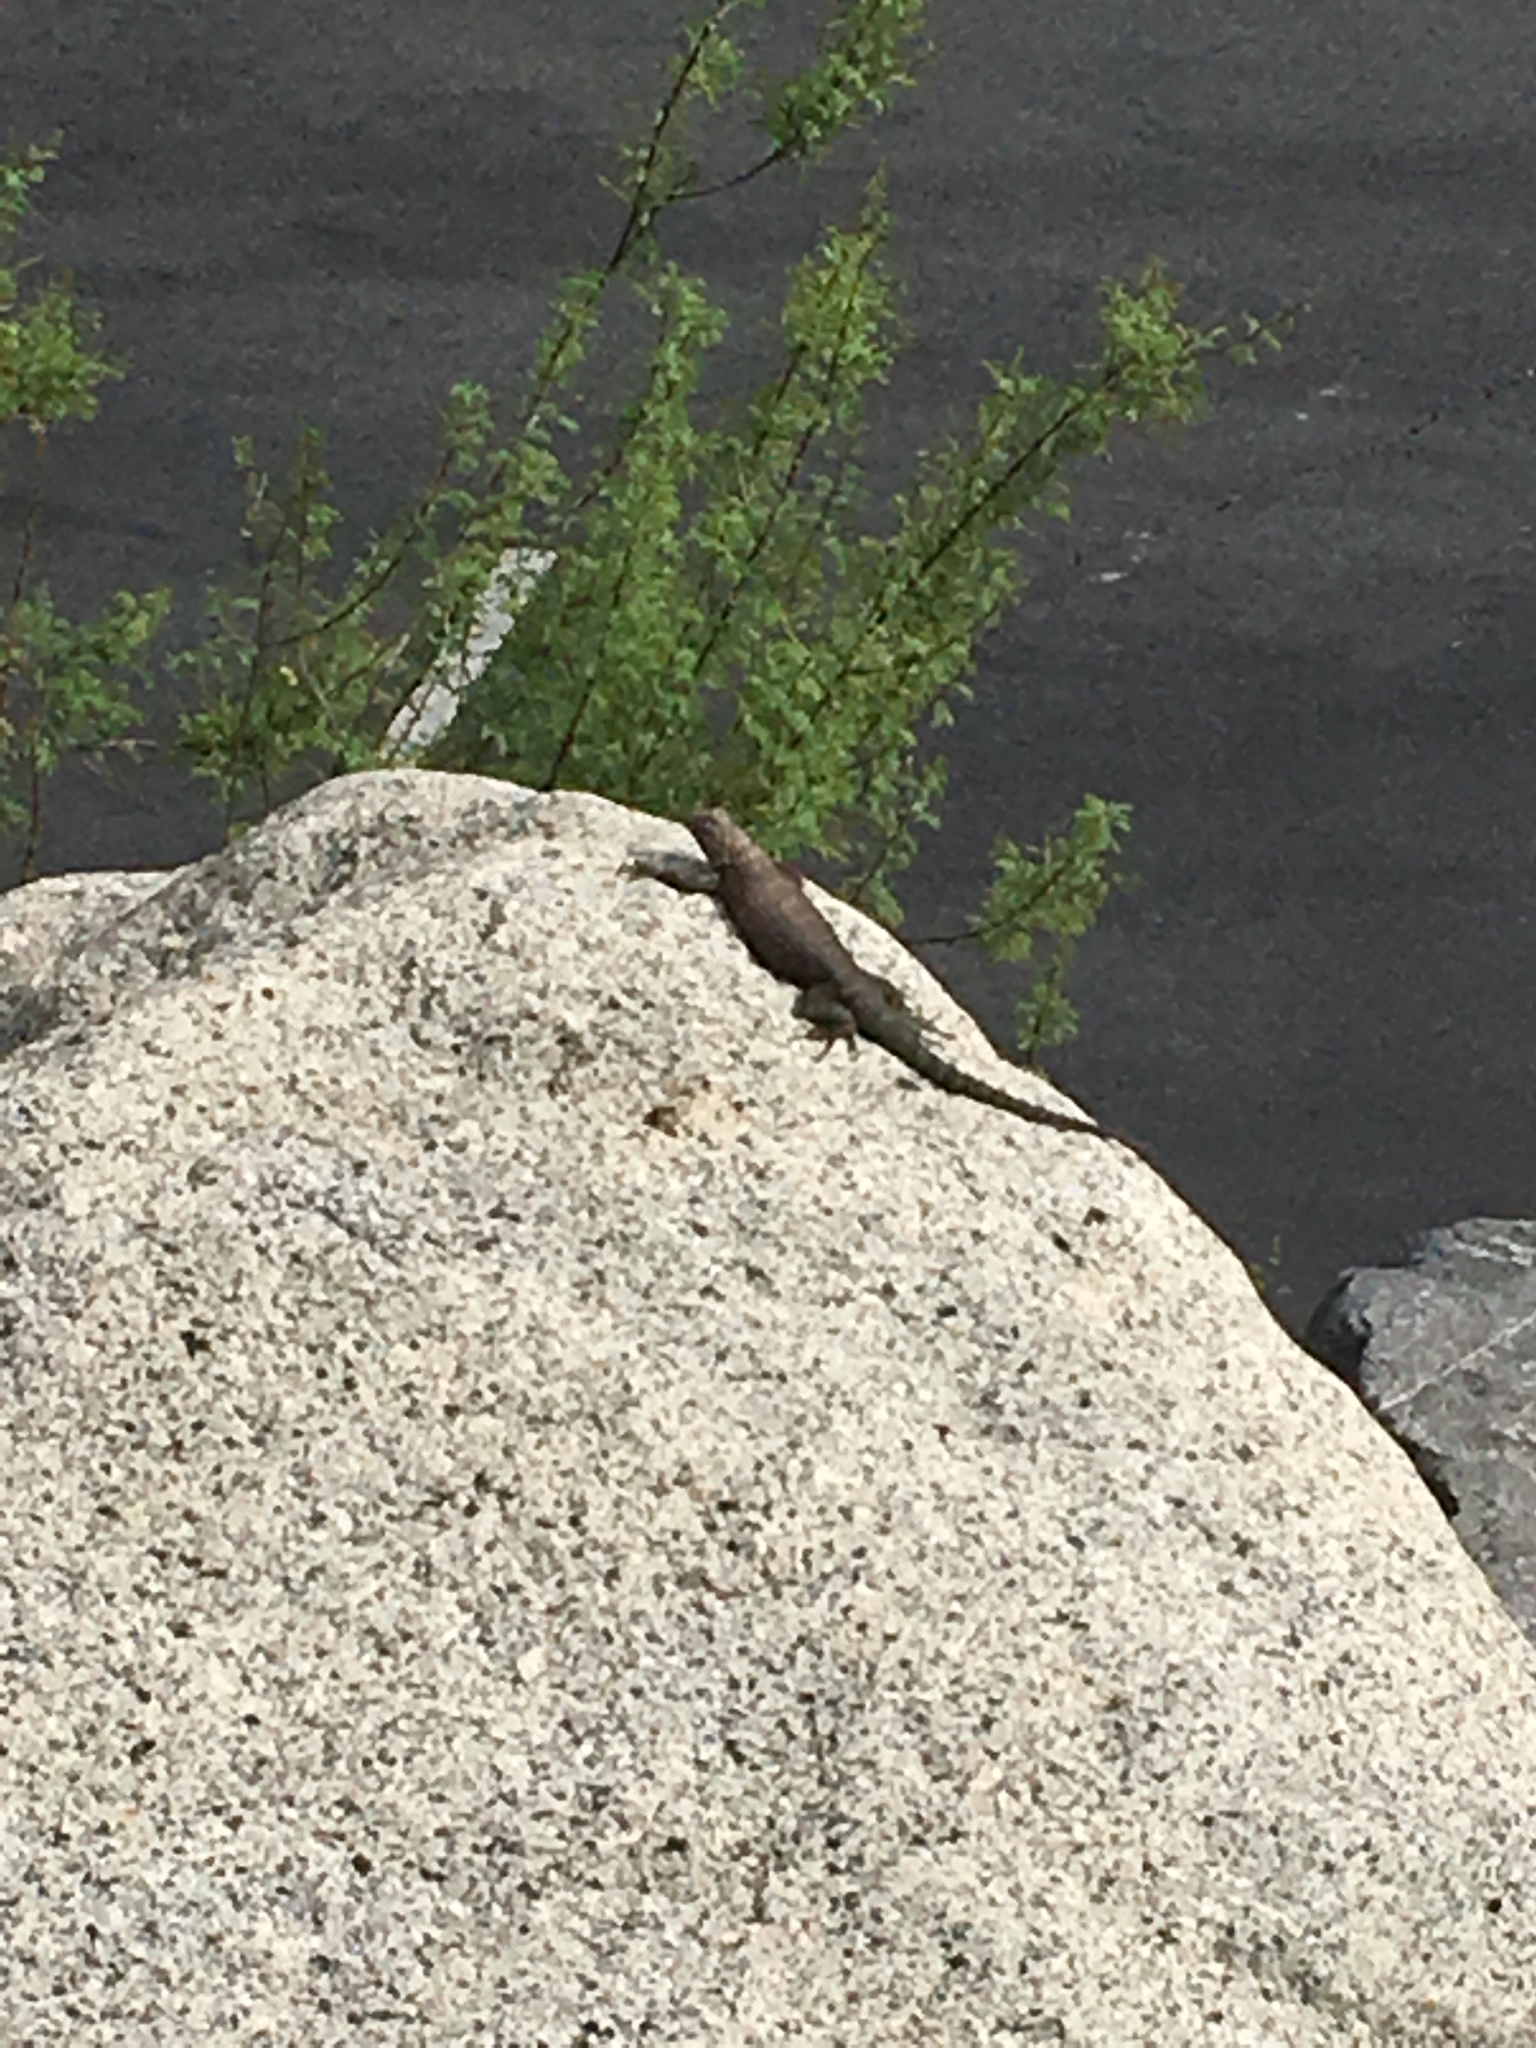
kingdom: Animalia
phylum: Chordata
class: Squamata
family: Phrynosomatidae
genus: Sceloporus
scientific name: Sceloporus orcutti
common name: Granite spiny lizard
